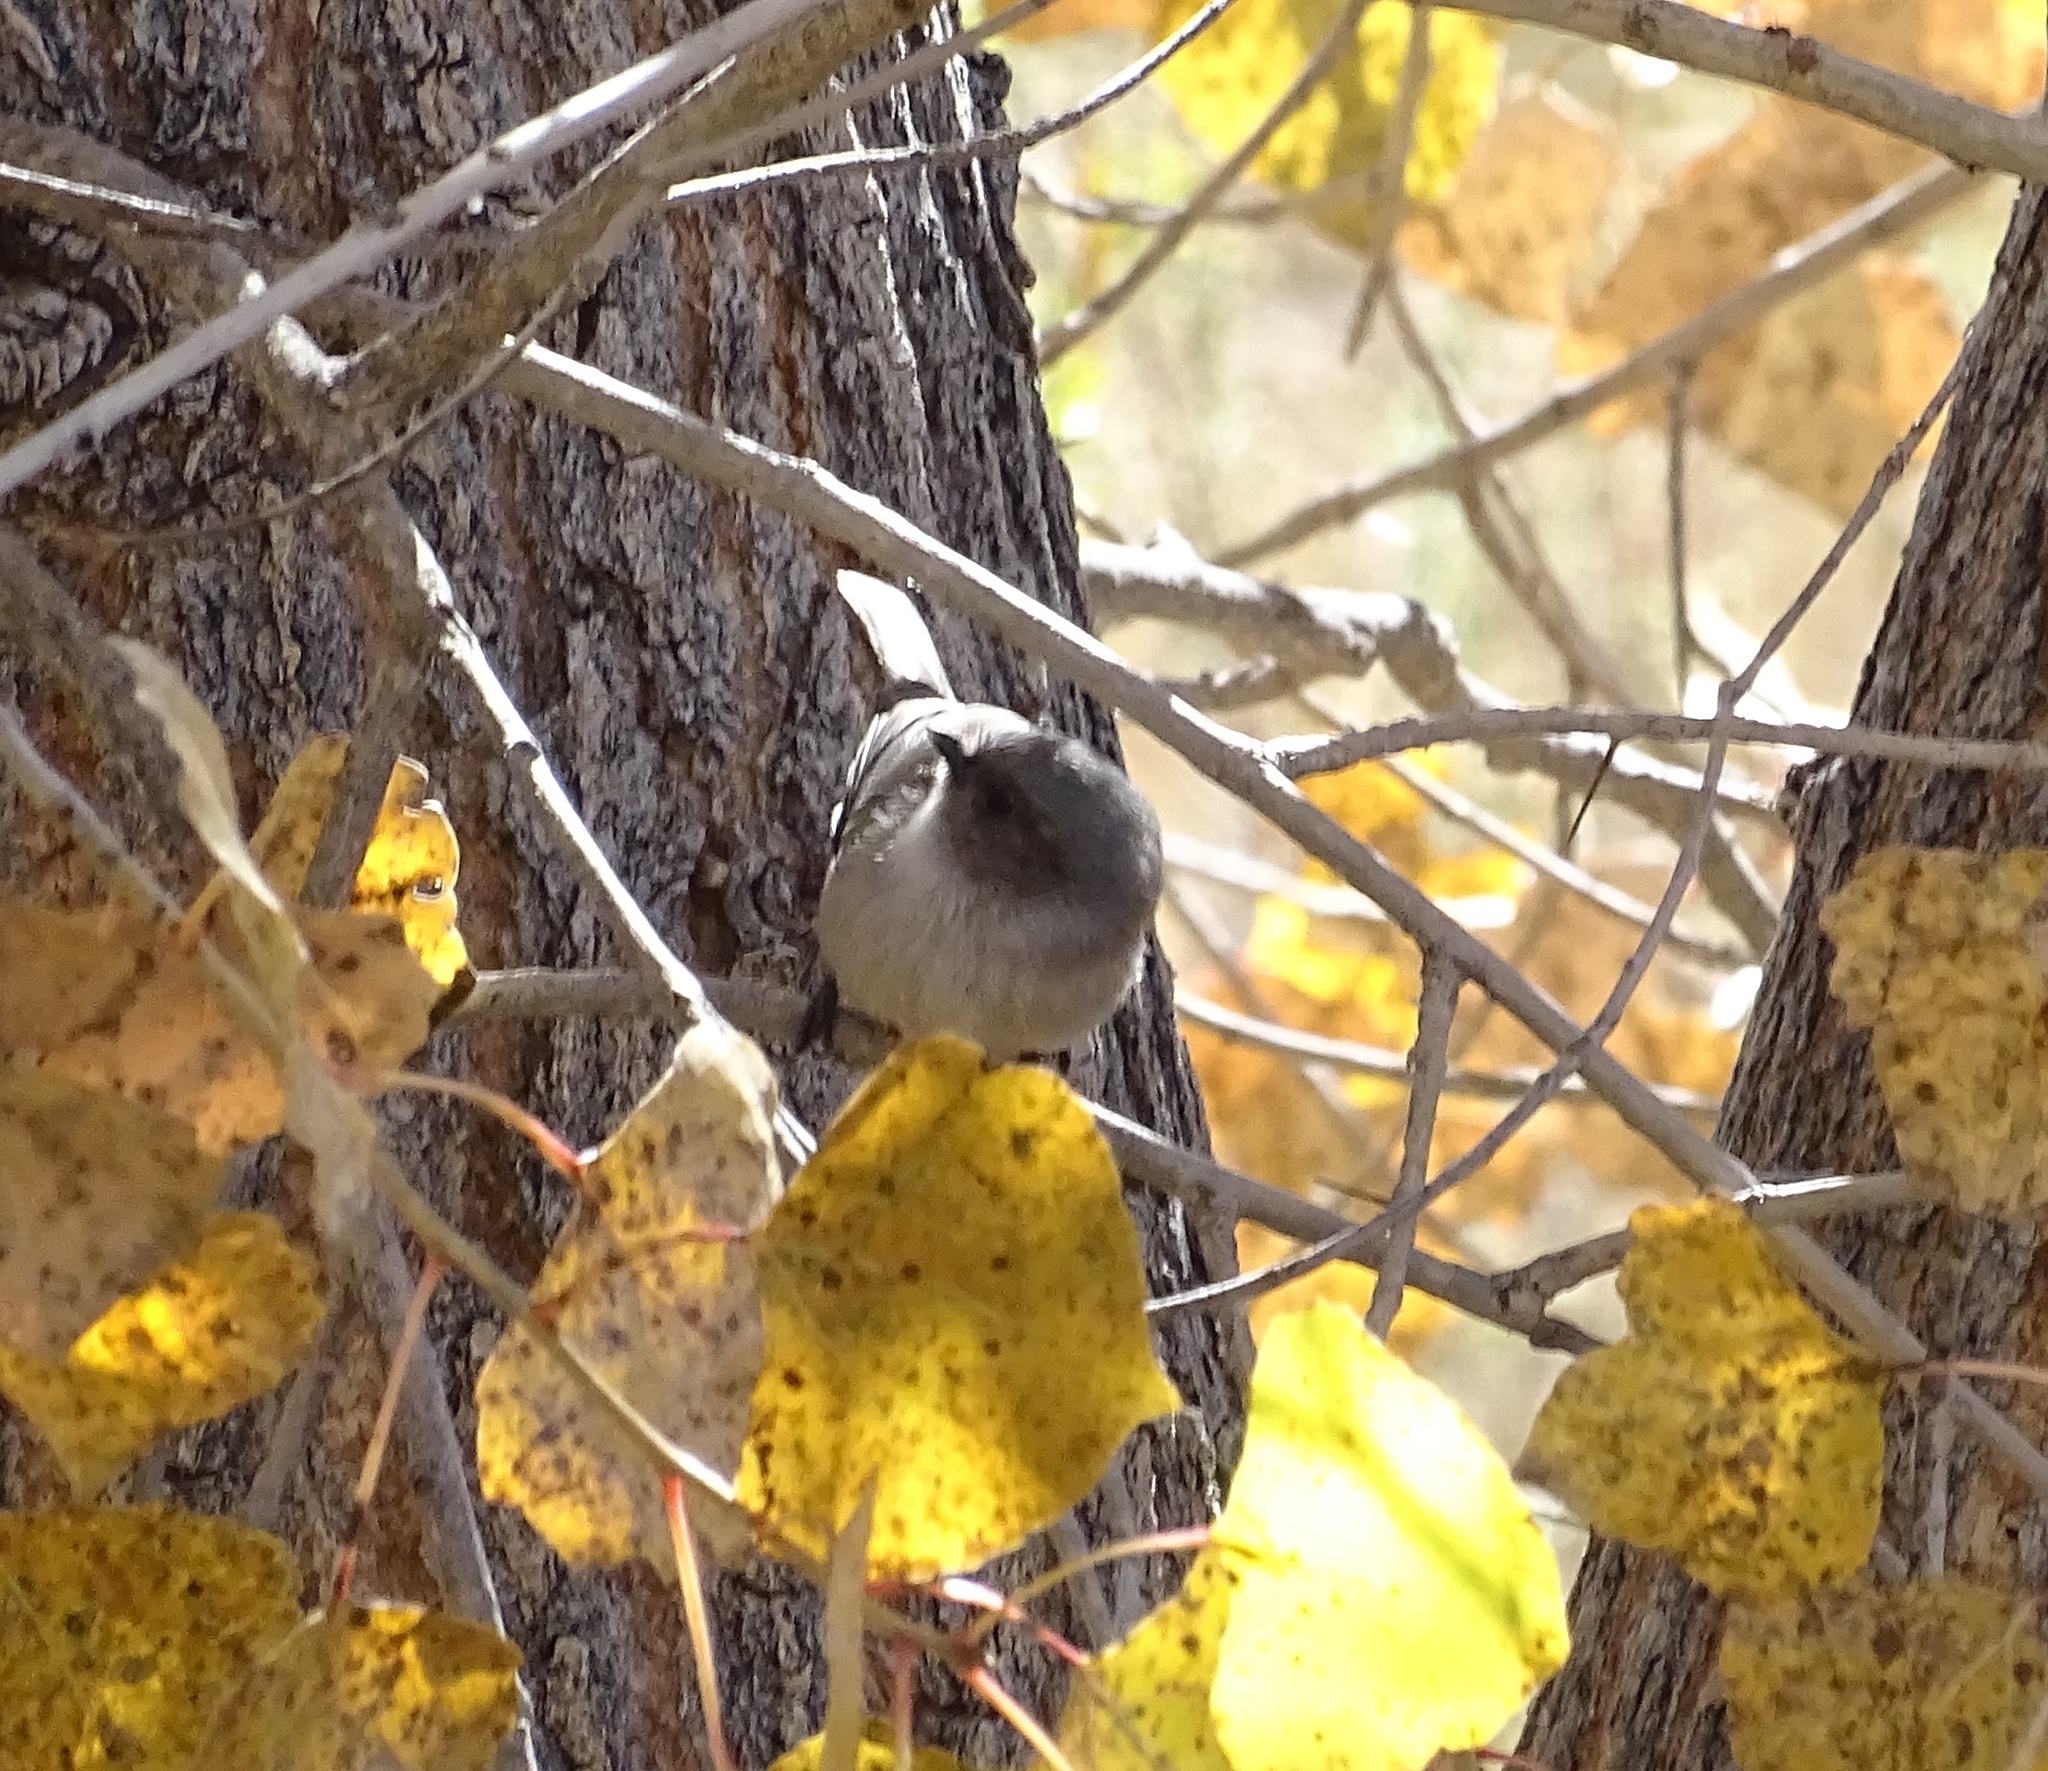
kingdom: Animalia
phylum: Chordata
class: Aves
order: Passeriformes
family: Aegithalidae
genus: Psaltriparus
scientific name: Psaltriparus minimus
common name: American bushtit
